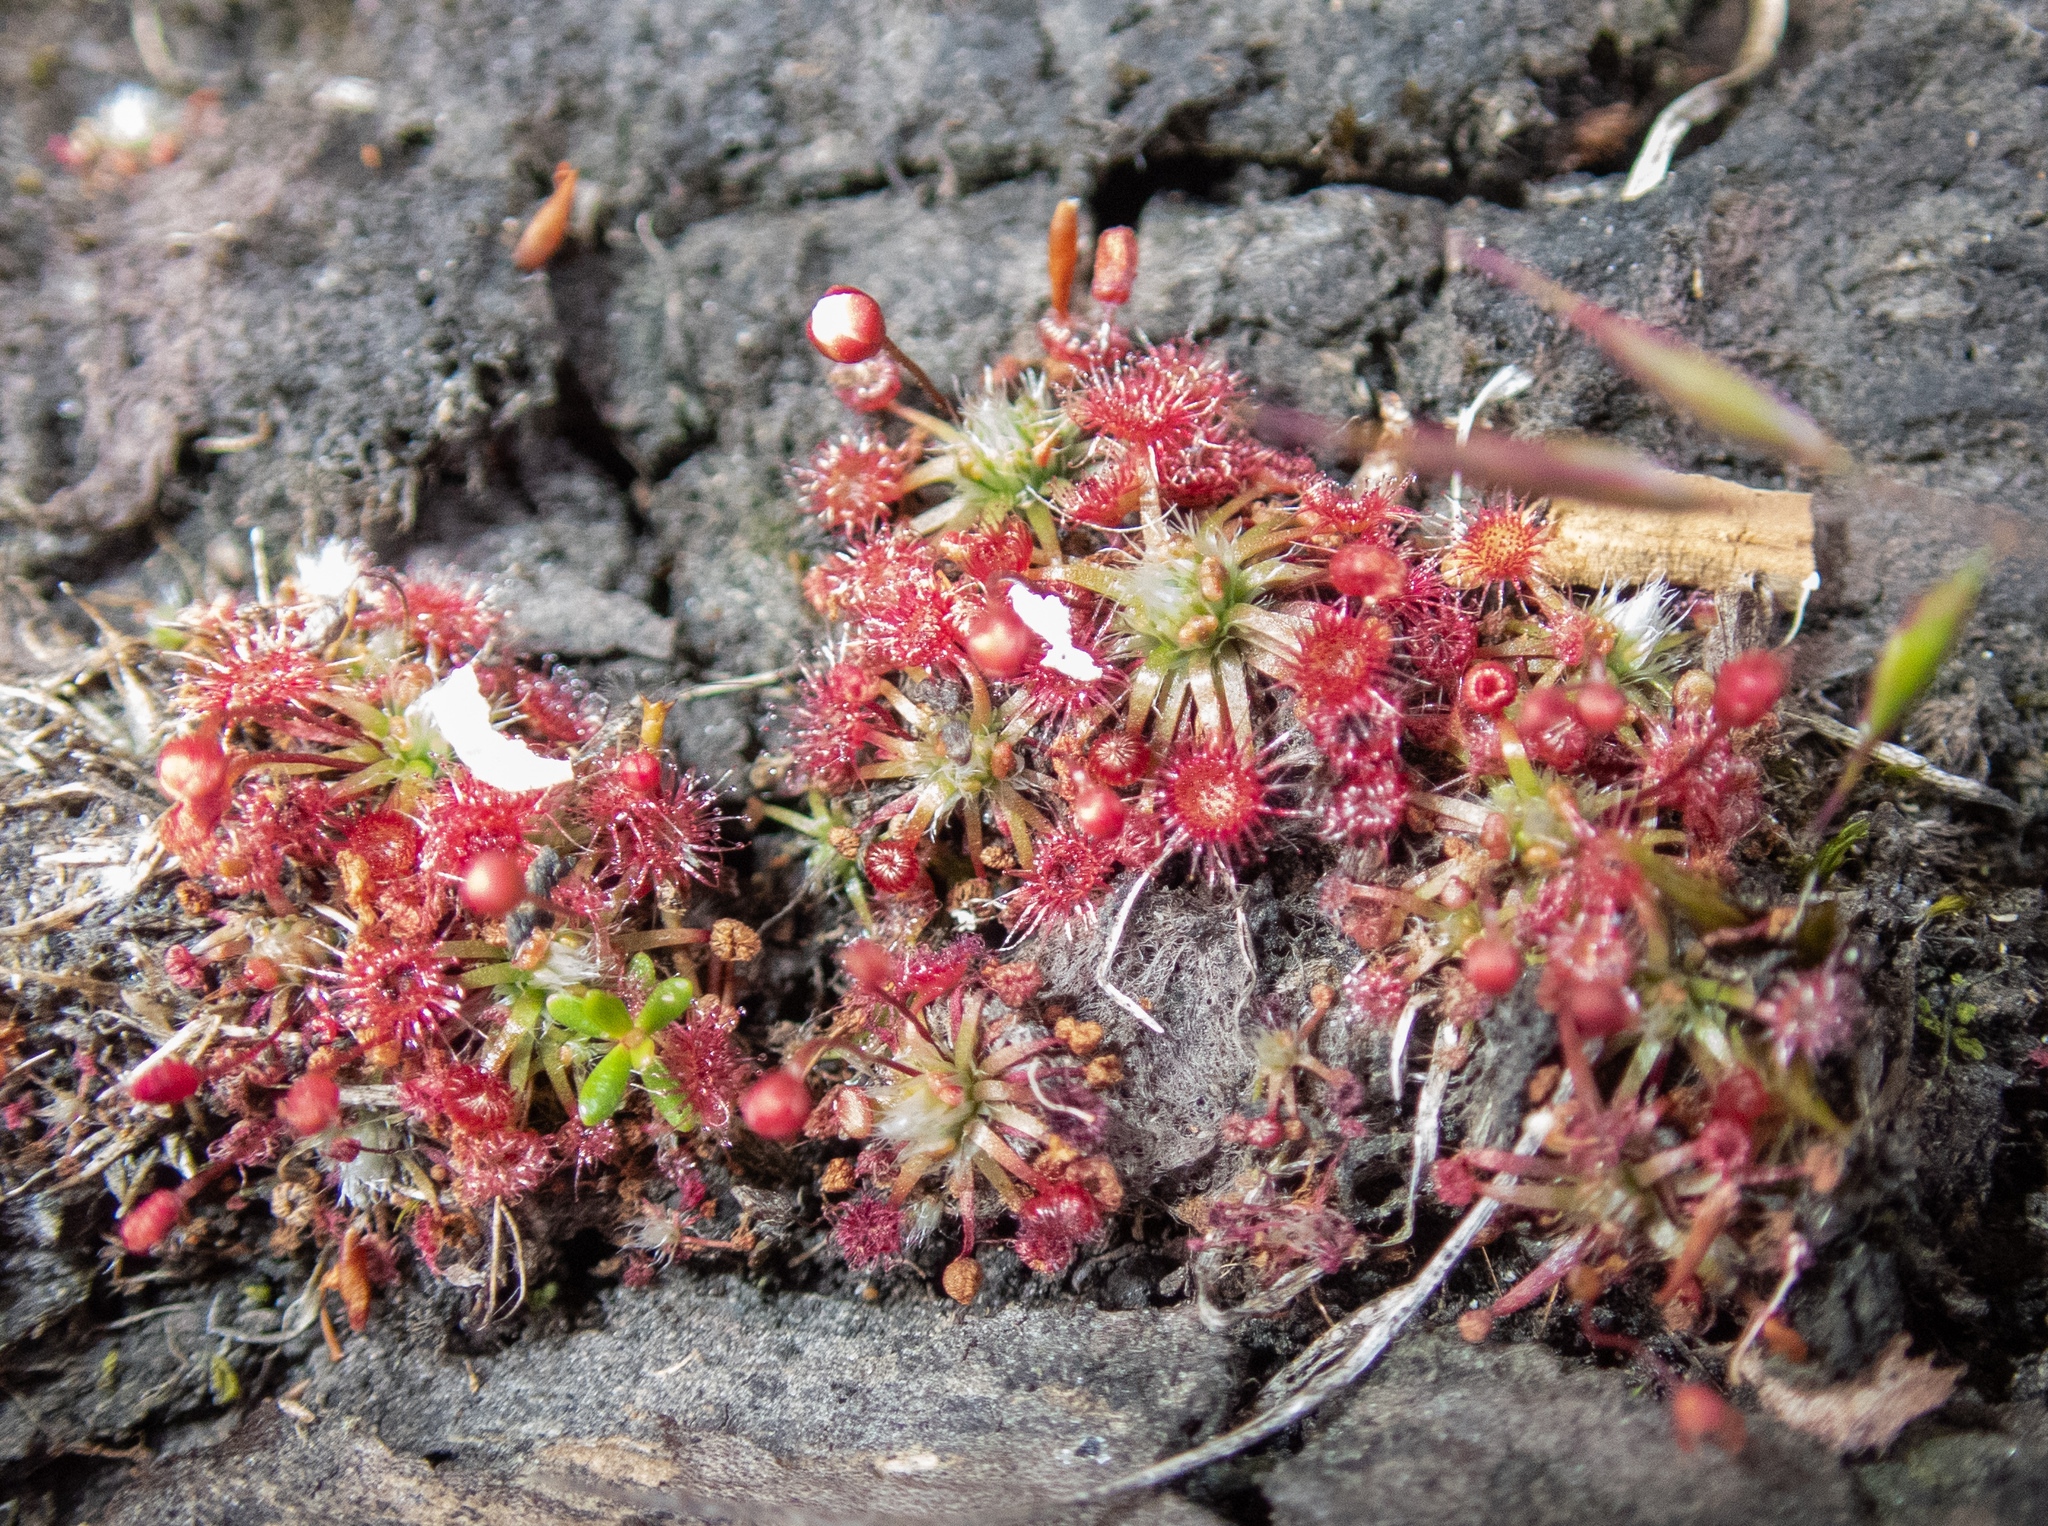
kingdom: Plantae
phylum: Tracheophyta
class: Magnoliopsida
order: Caryophyllales
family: Droseraceae
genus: Drosera
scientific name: Drosera pygmaea
